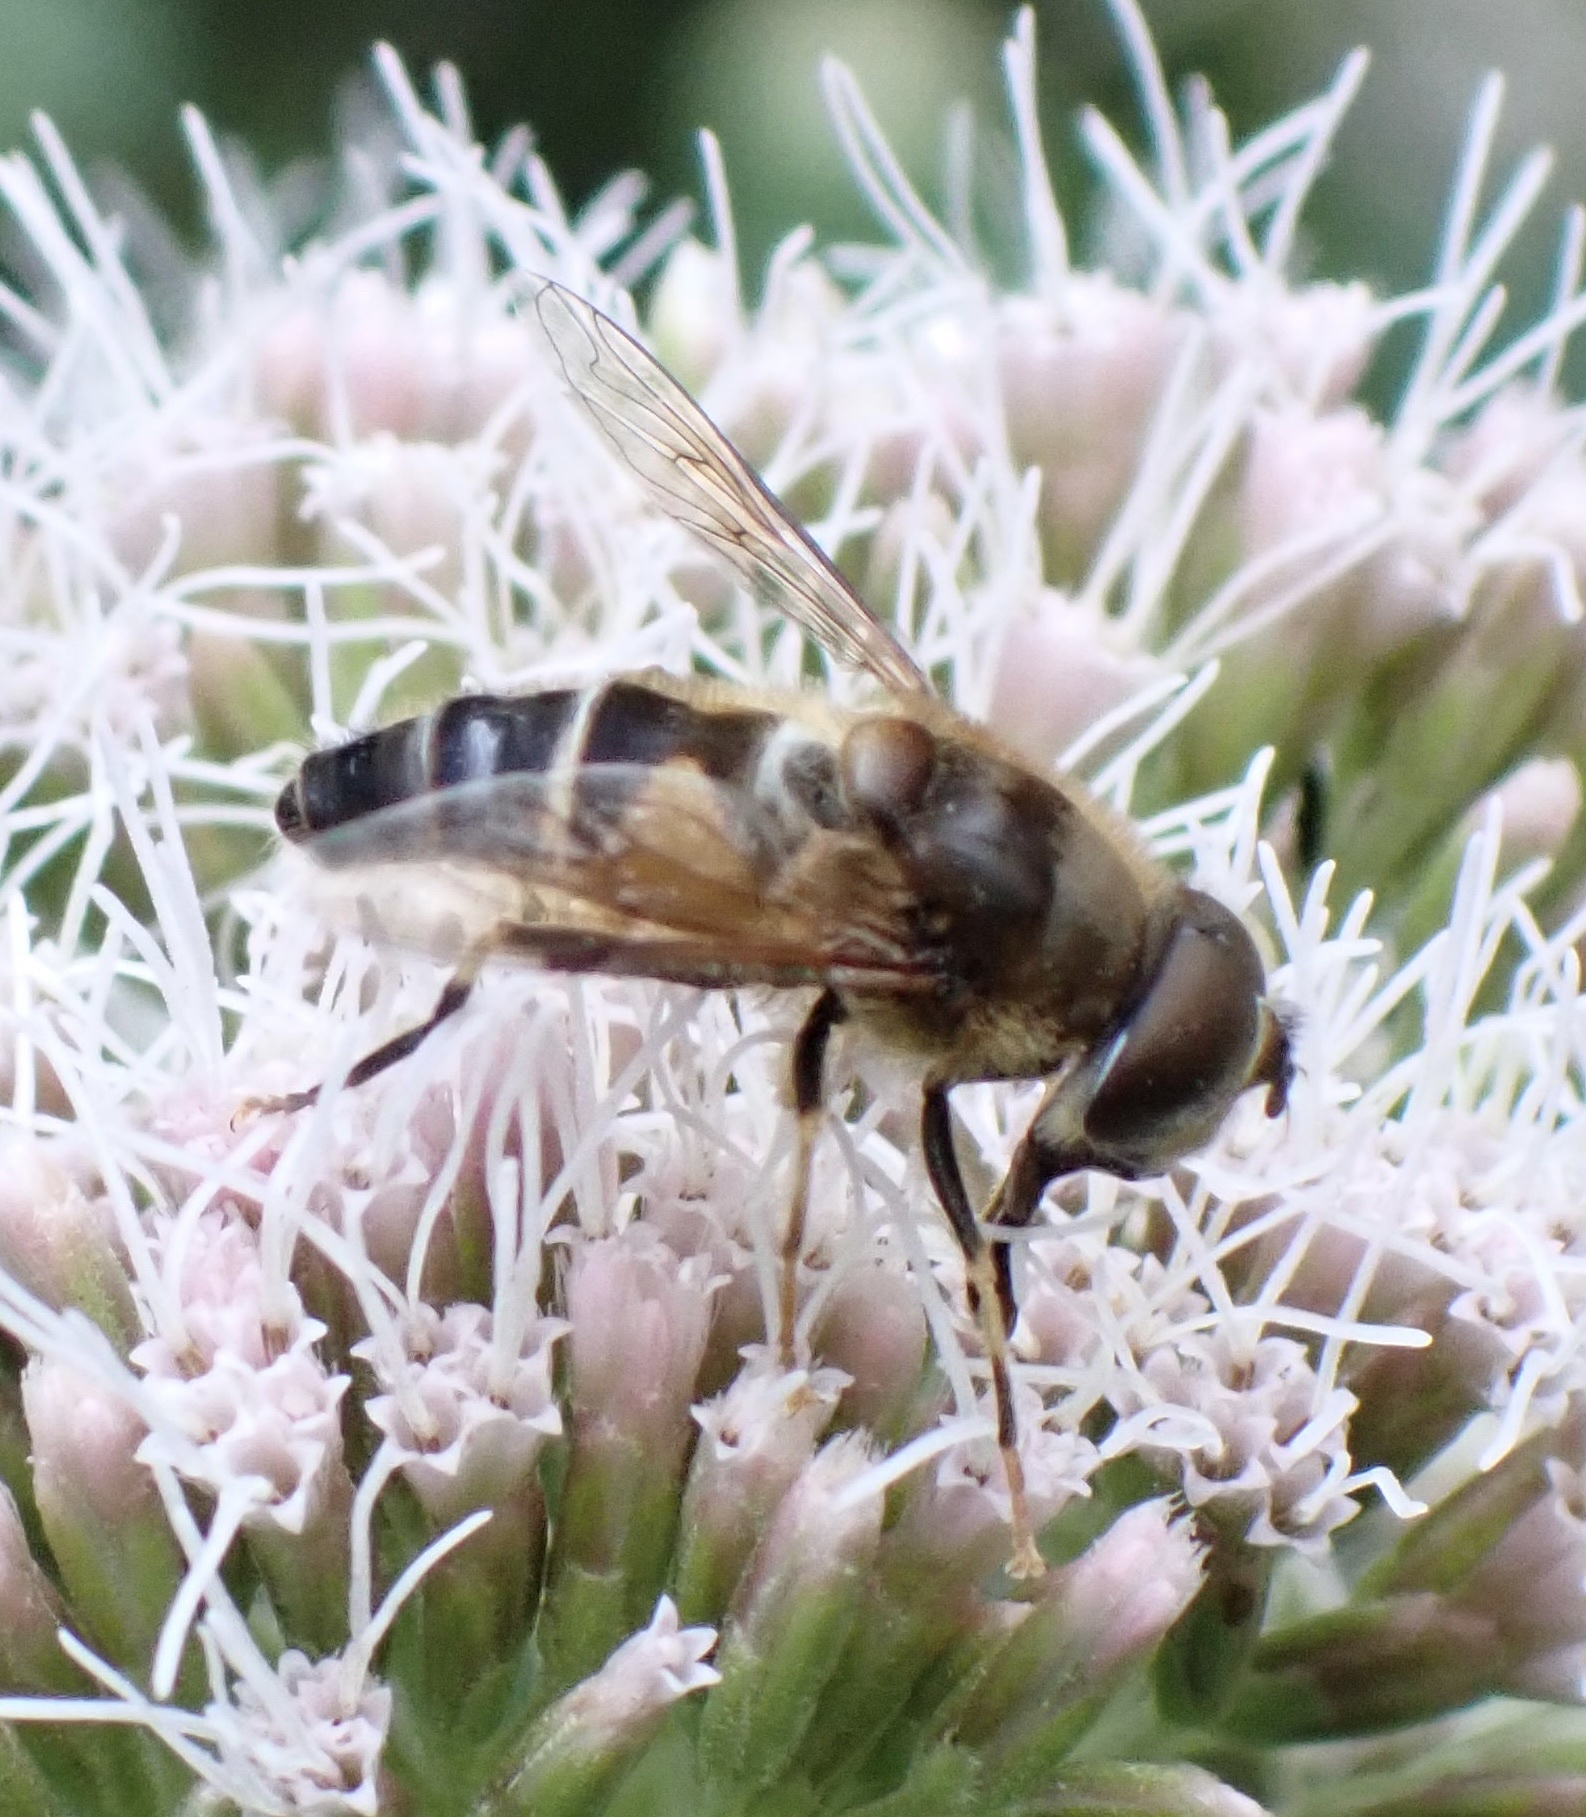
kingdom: Animalia
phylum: Arthropoda
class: Insecta
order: Diptera
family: Syrphidae
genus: Eristalis
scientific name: Eristalis pertinax
